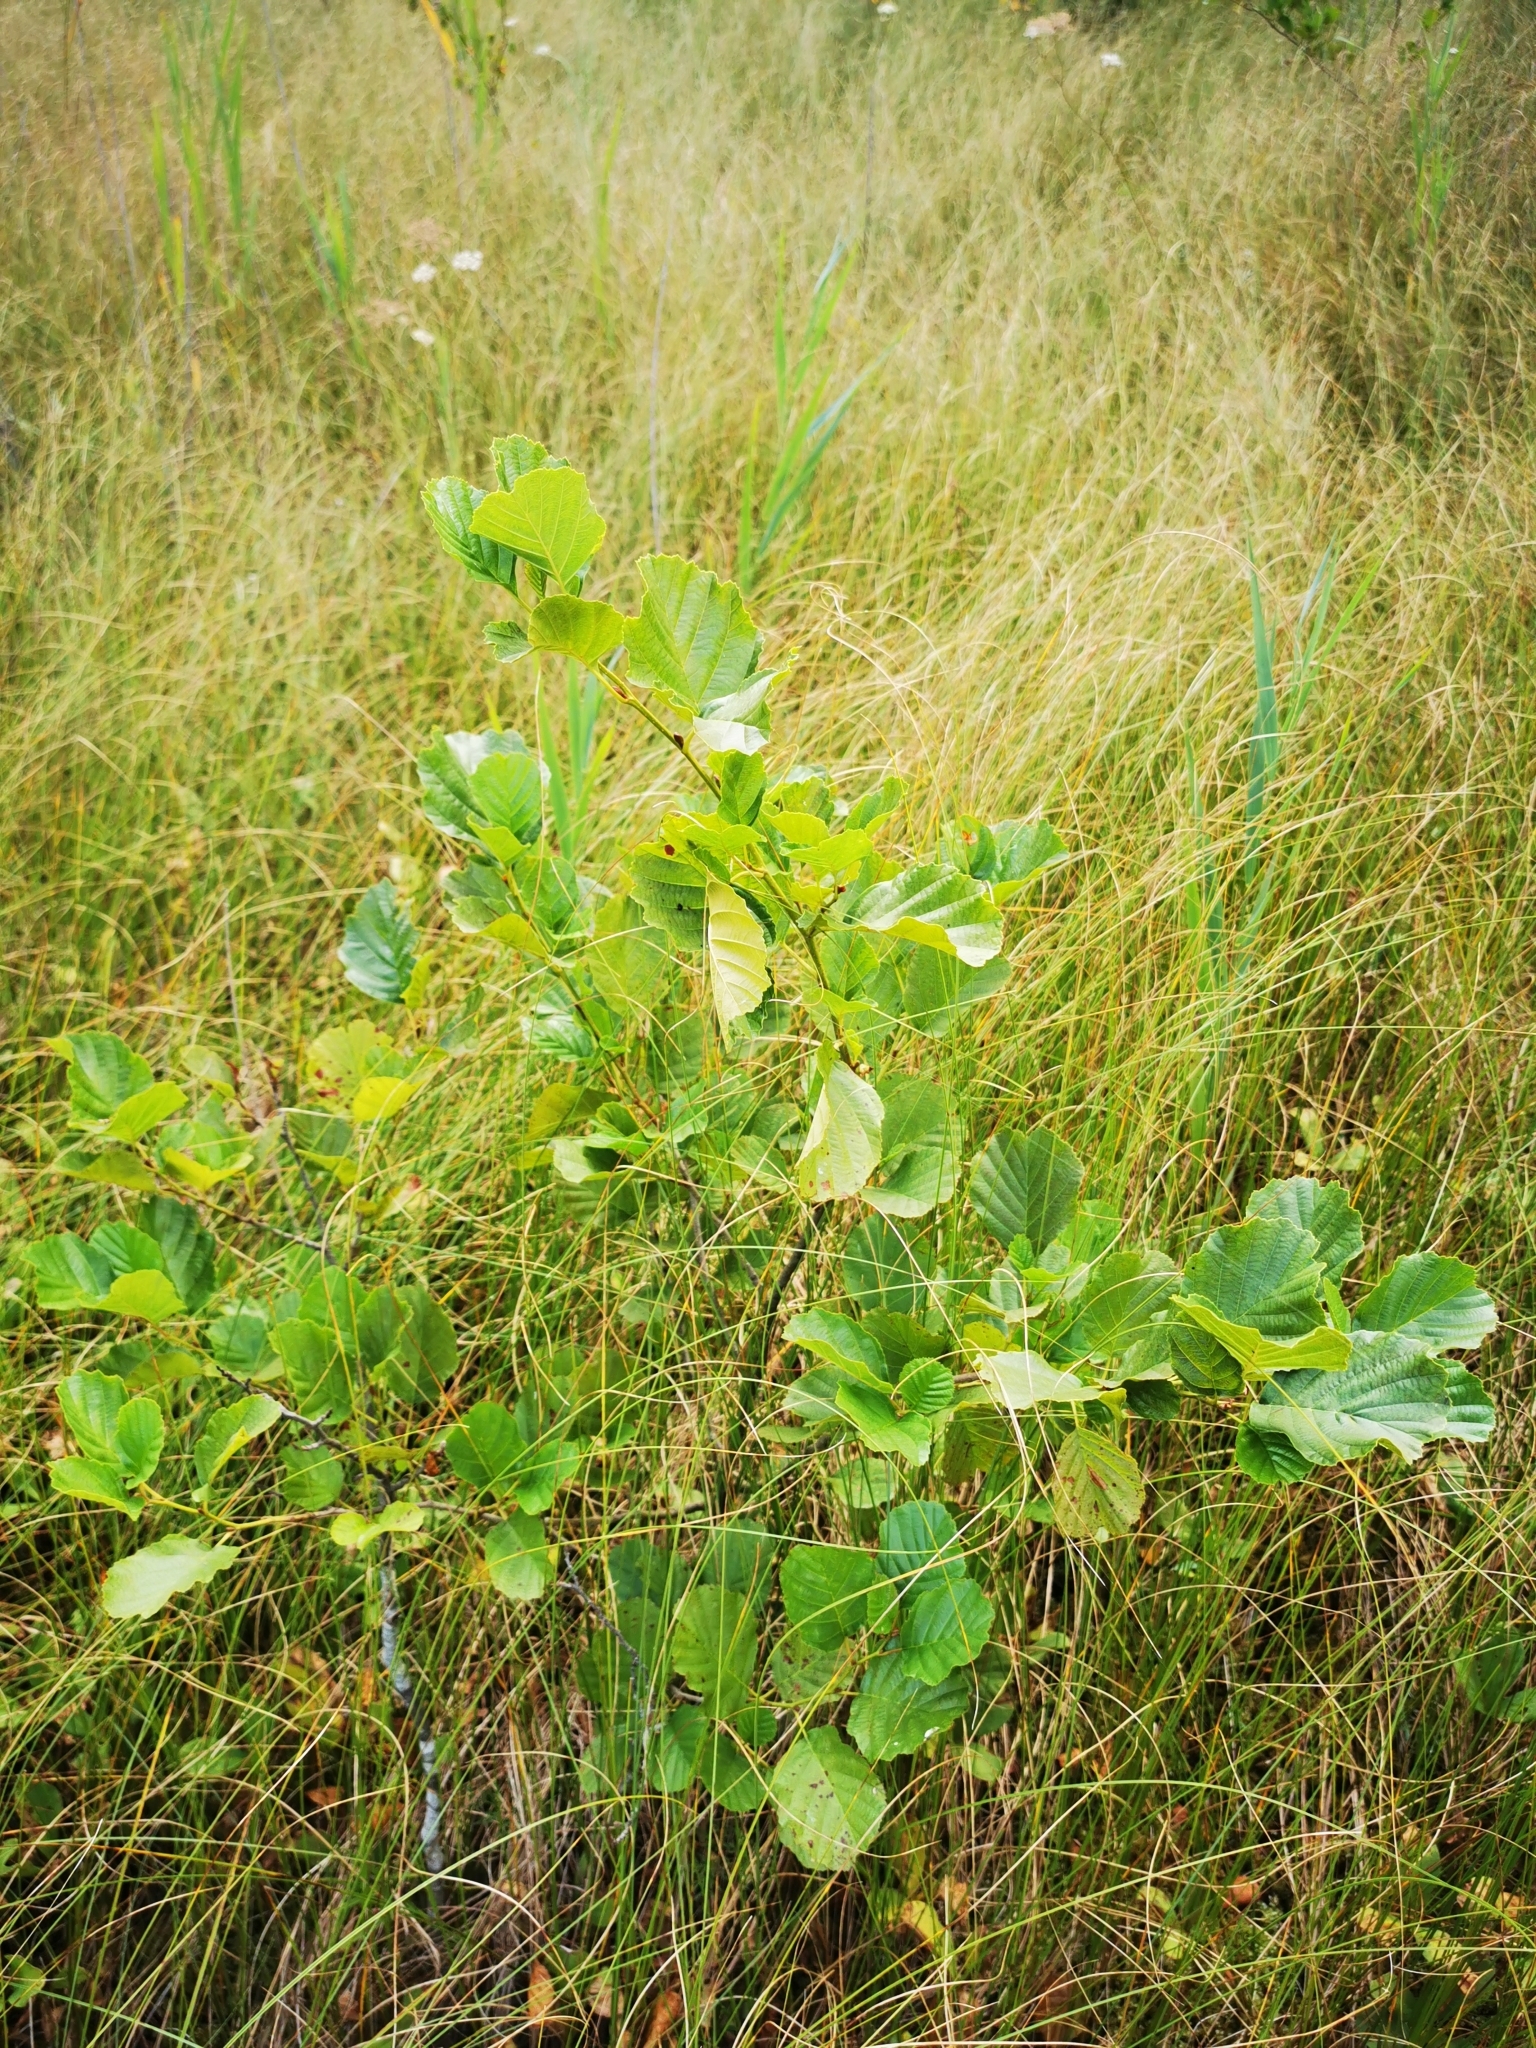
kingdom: Plantae
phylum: Tracheophyta
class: Magnoliopsida
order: Fagales
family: Betulaceae
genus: Alnus
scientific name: Alnus glutinosa
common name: Black alder
